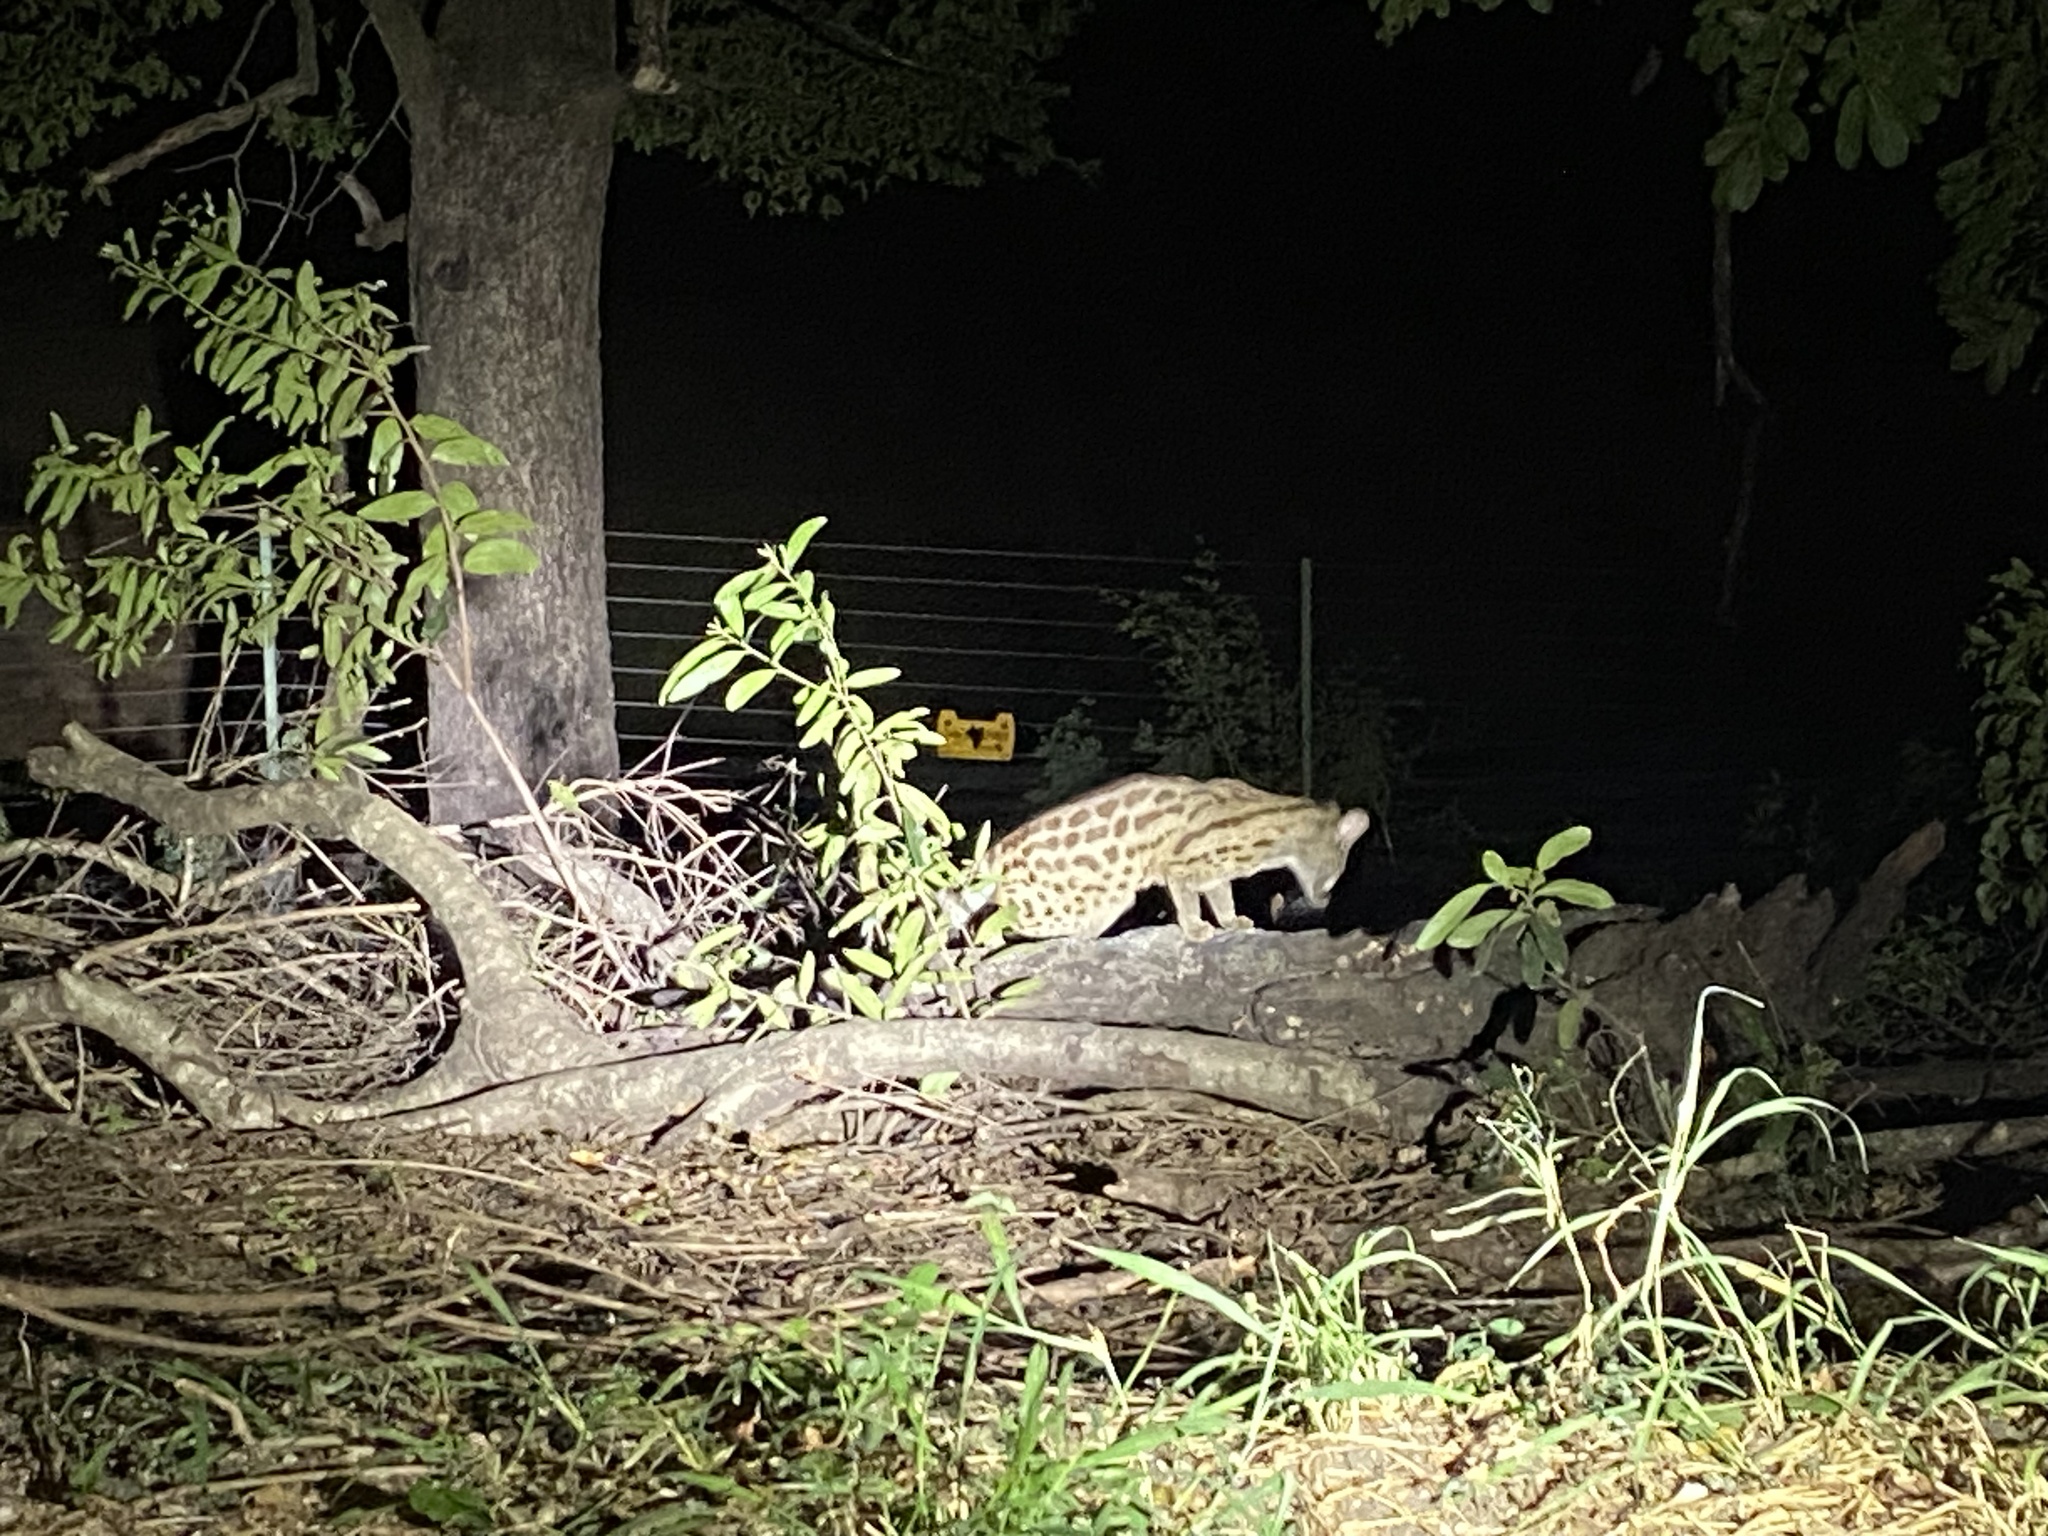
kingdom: Animalia
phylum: Chordata
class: Mammalia
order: Carnivora
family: Viverridae
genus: Genetta
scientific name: Genetta maculata
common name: Rusty-spotted genet
